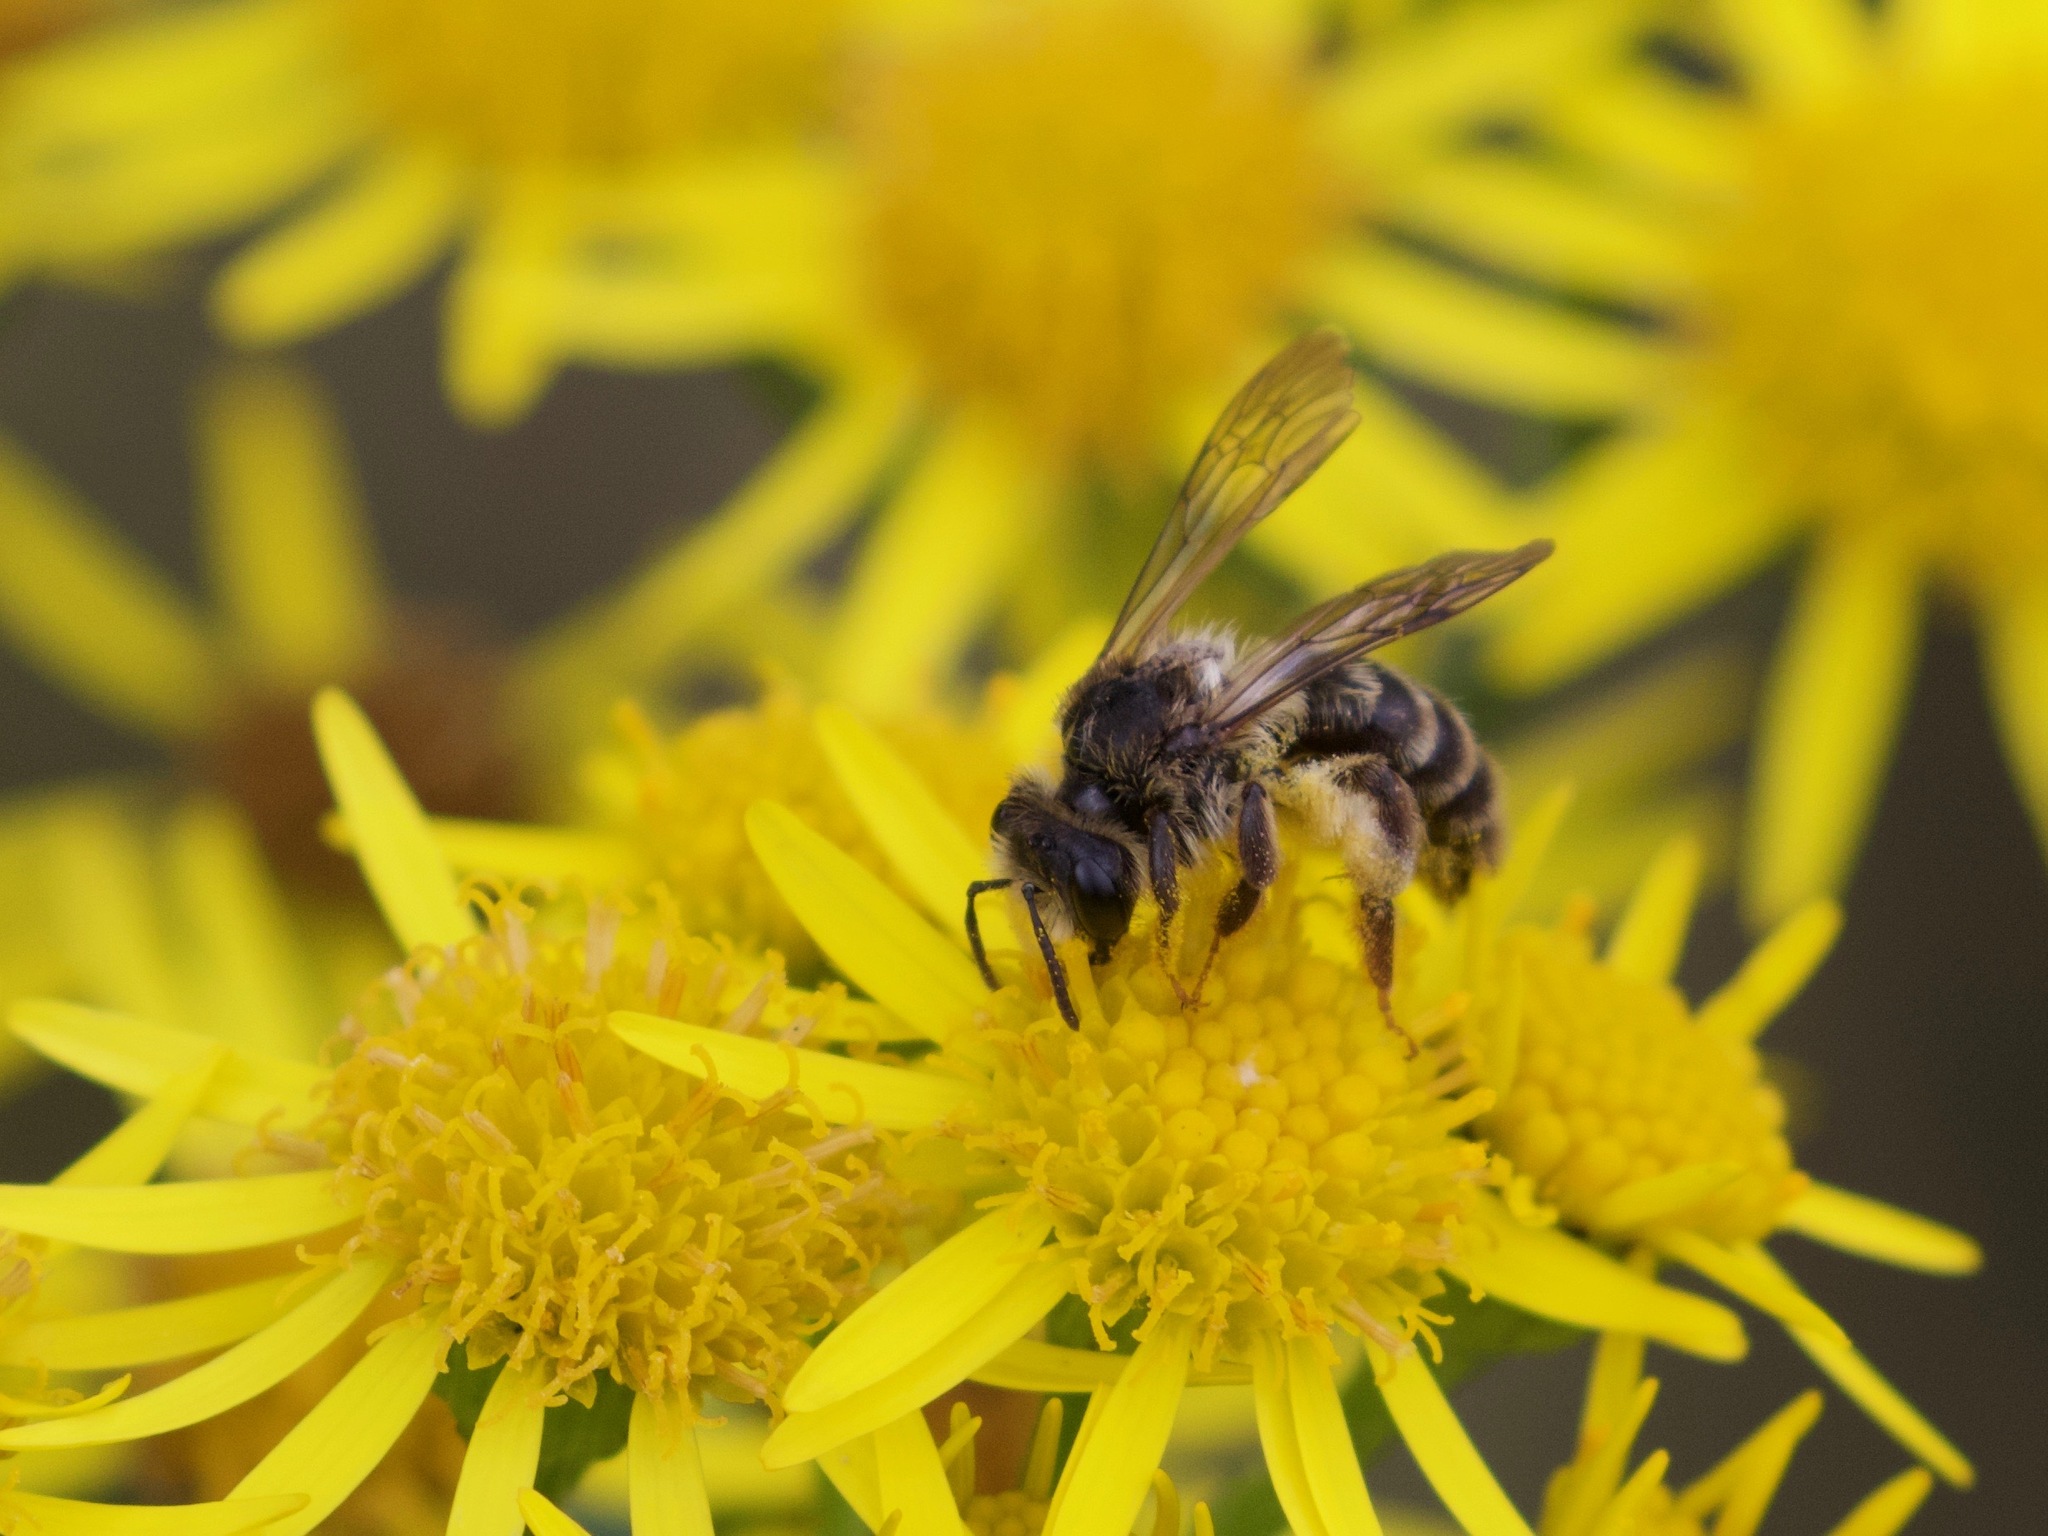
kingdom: Animalia
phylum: Arthropoda
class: Insecta
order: Hymenoptera
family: Andrenidae
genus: Andrena
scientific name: Andrena denticulata
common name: Grey-banded mining bee
